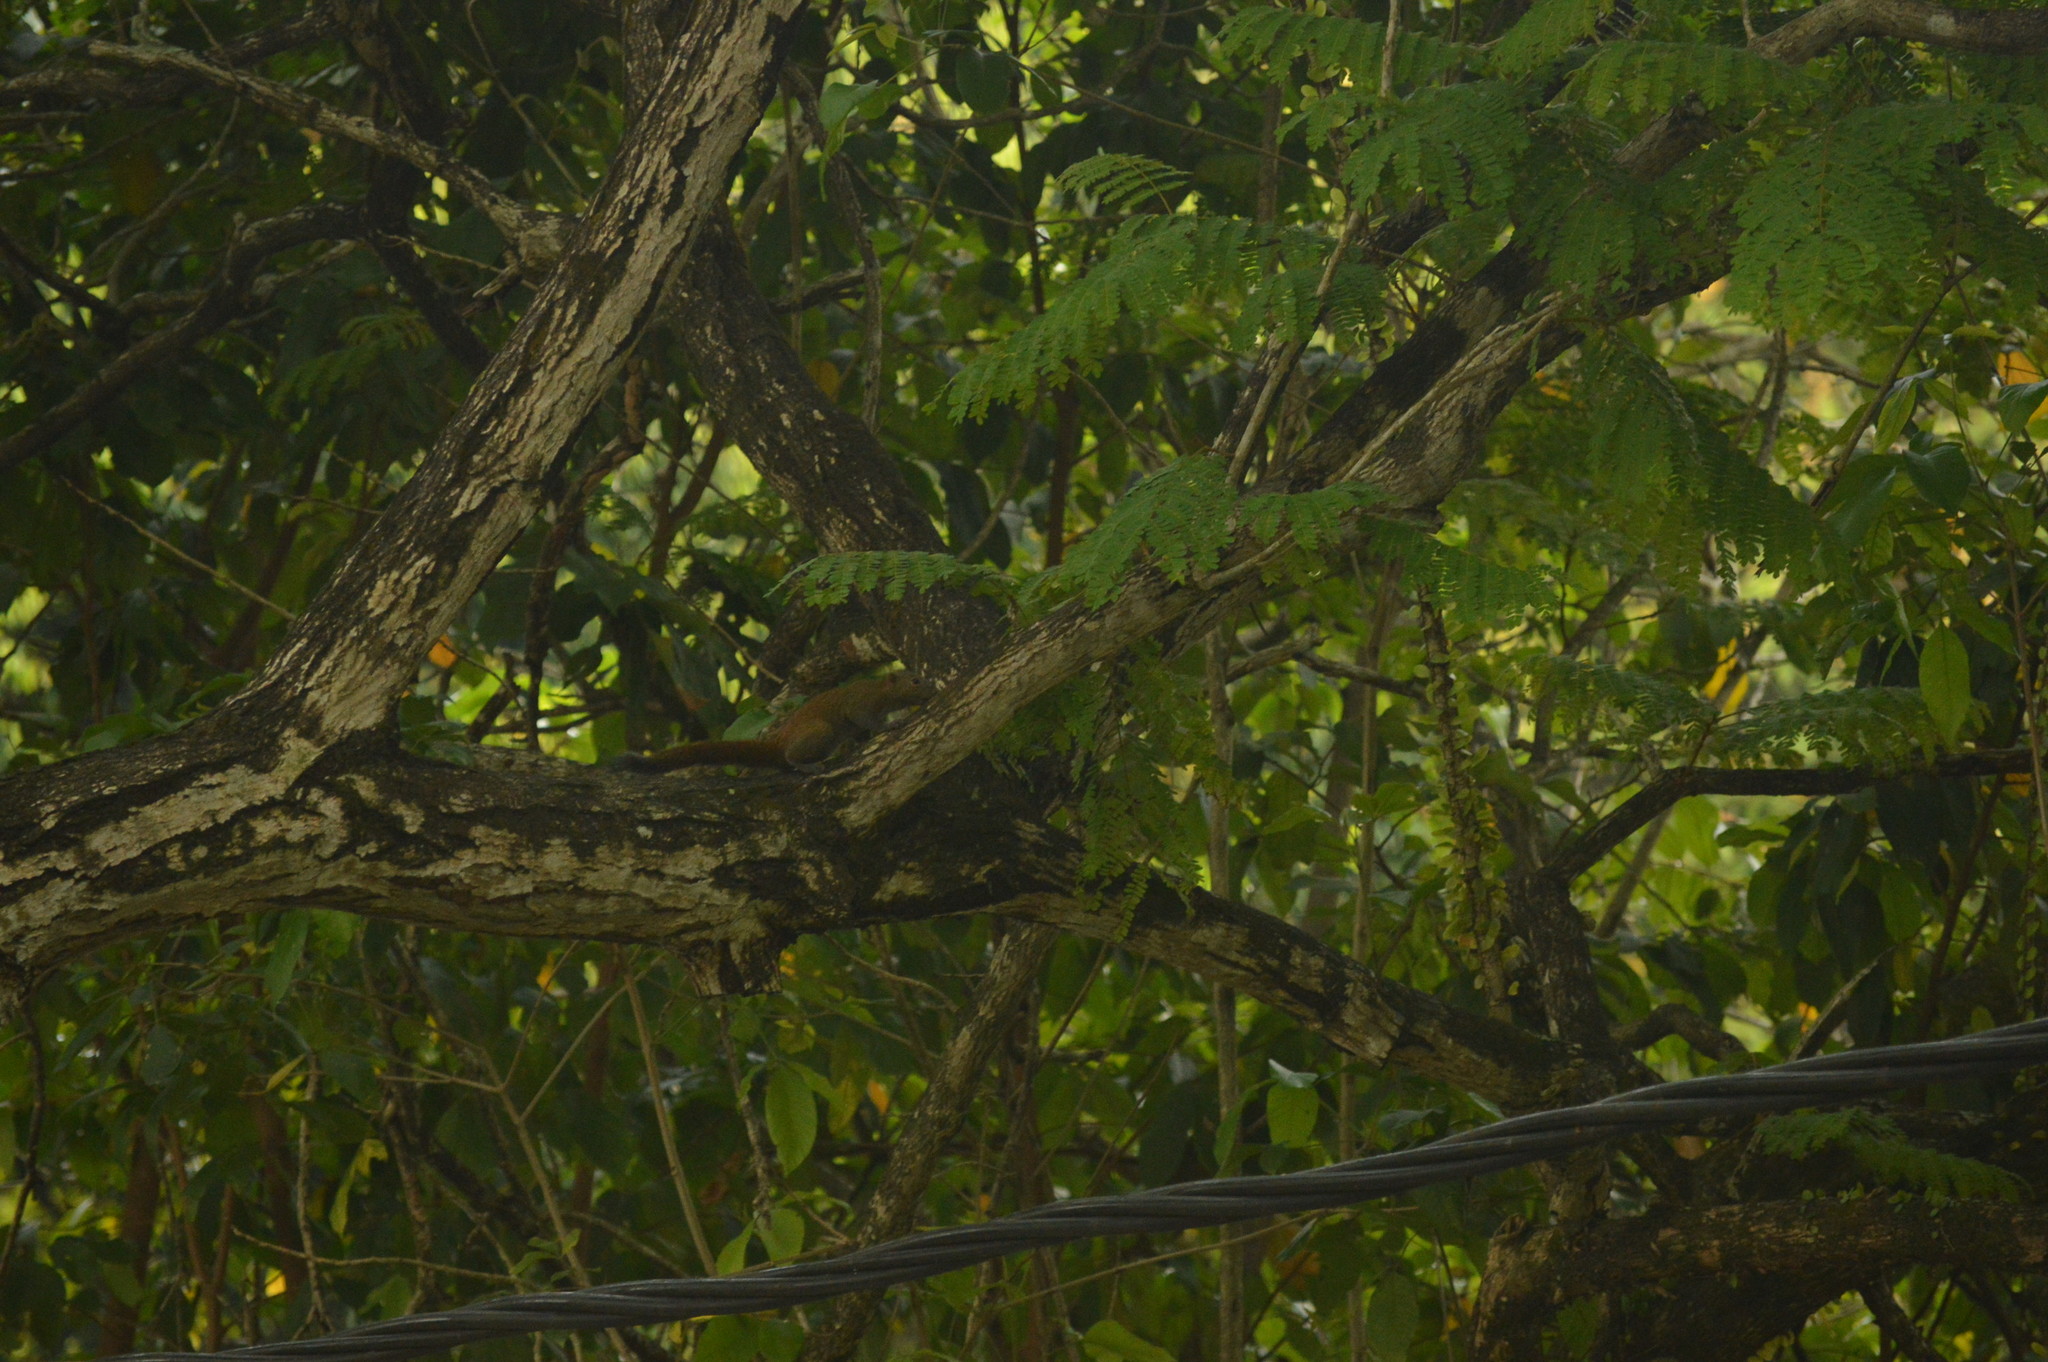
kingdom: Animalia
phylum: Chordata
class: Mammalia
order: Rodentia
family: Sciuridae
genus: Callosciurus
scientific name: Callosciurus caniceps
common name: Gray-bellied squirrel
